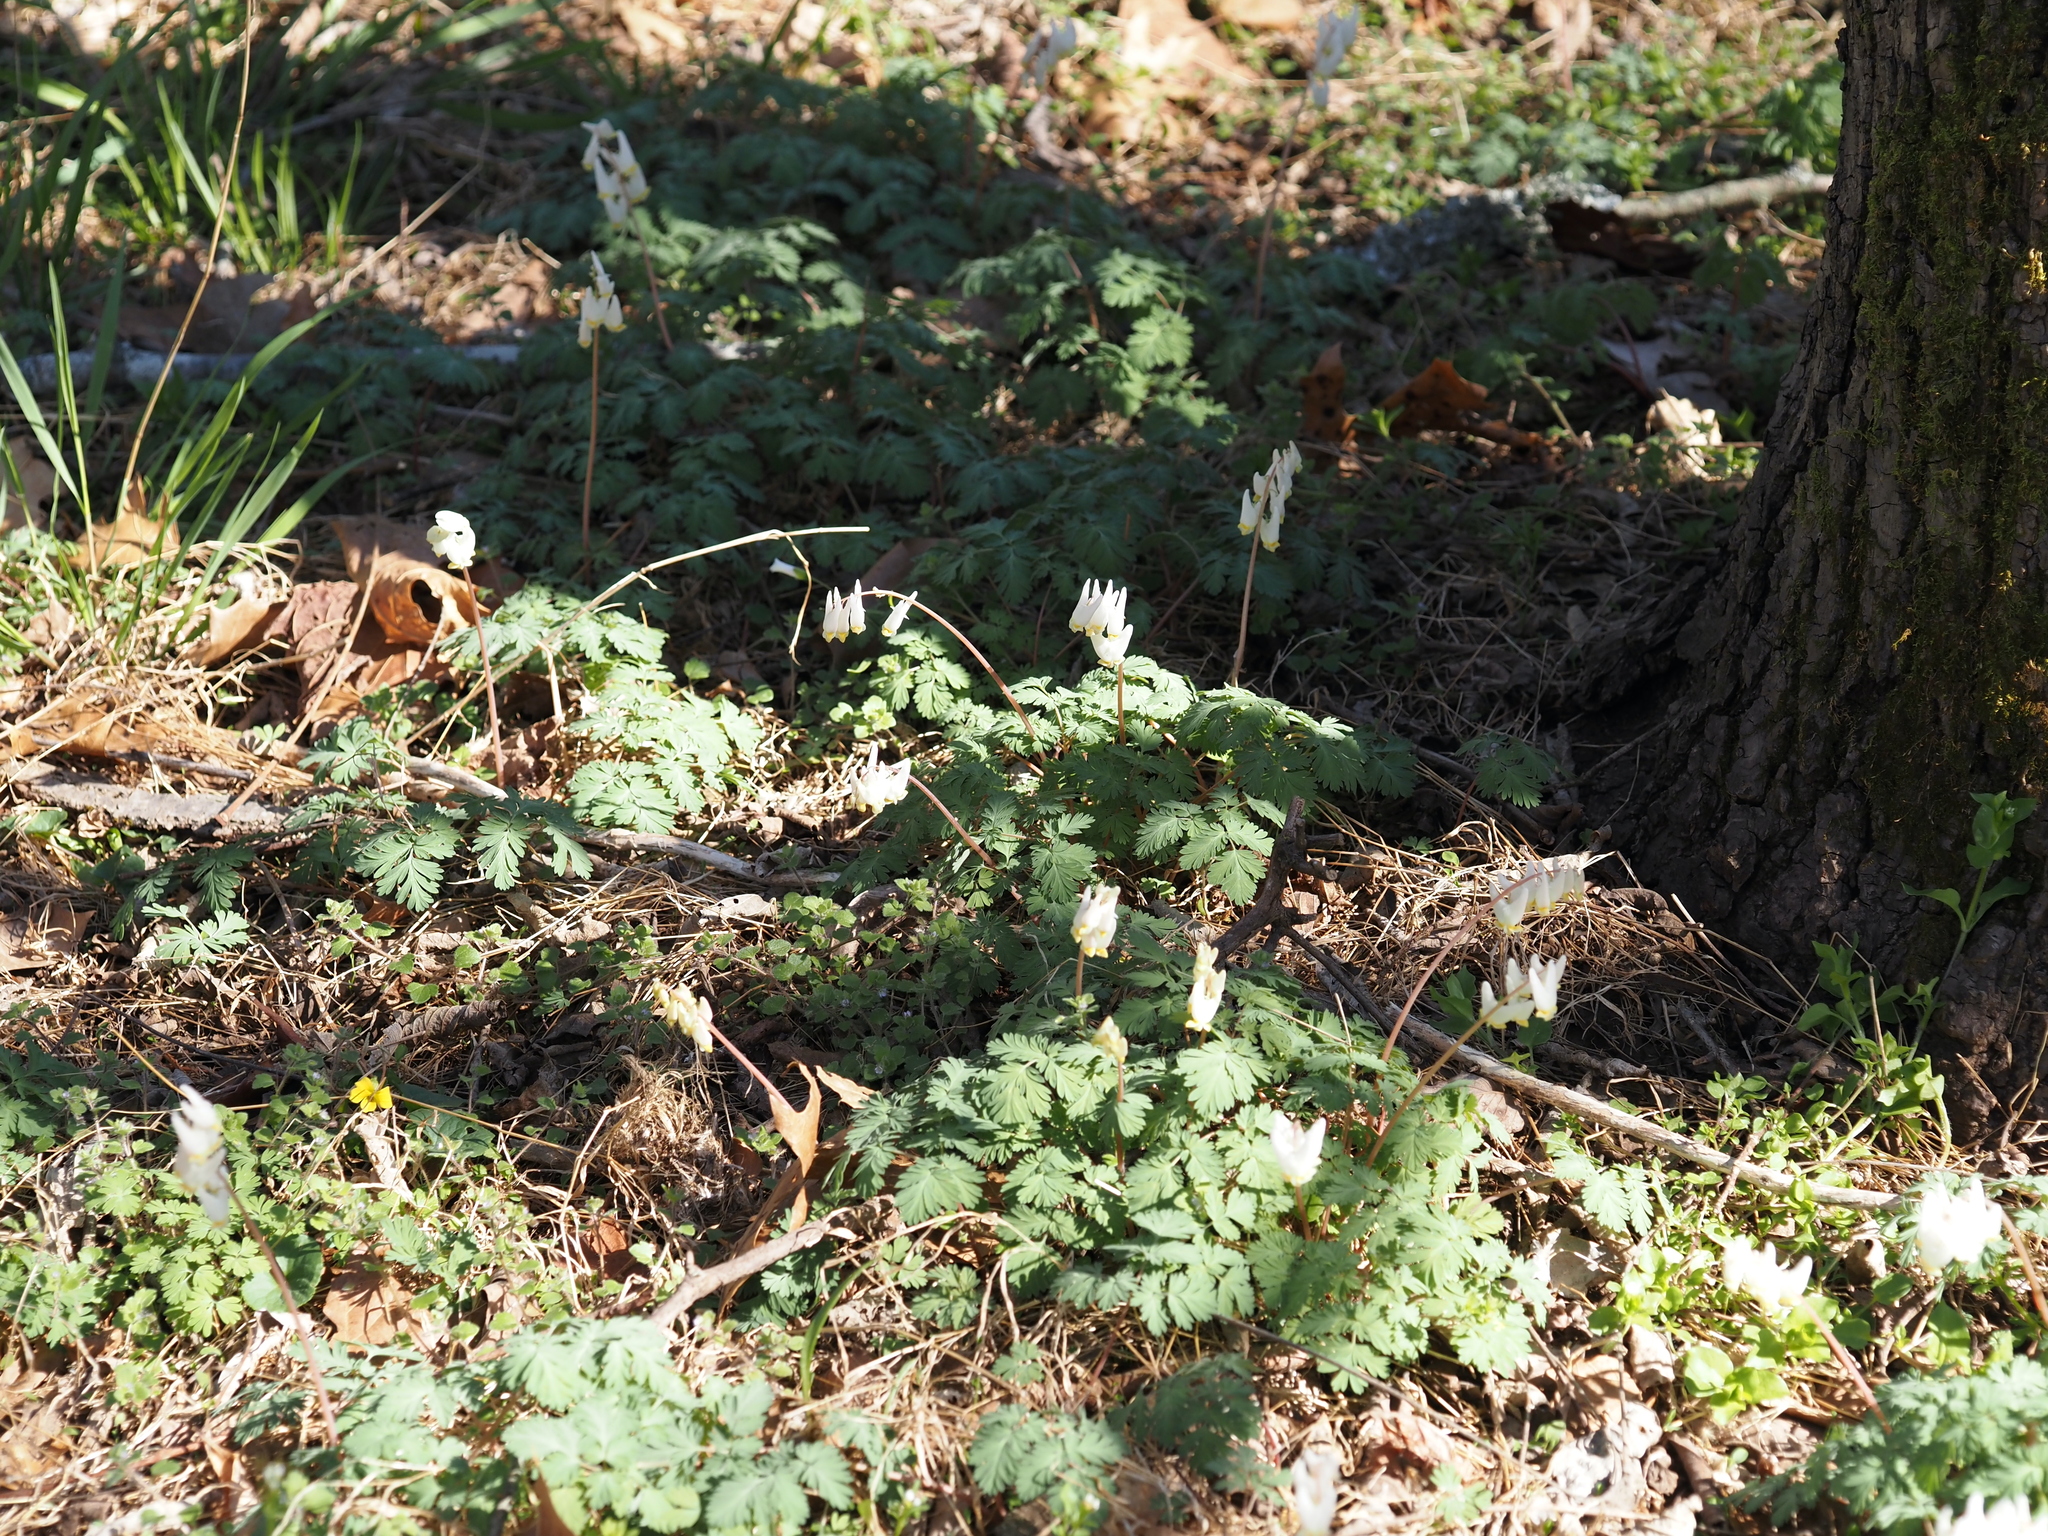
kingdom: Plantae
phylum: Tracheophyta
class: Magnoliopsida
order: Ranunculales
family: Papaveraceae
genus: Dicentra
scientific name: Dicentra cucullaria
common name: Dutchman's breeches
